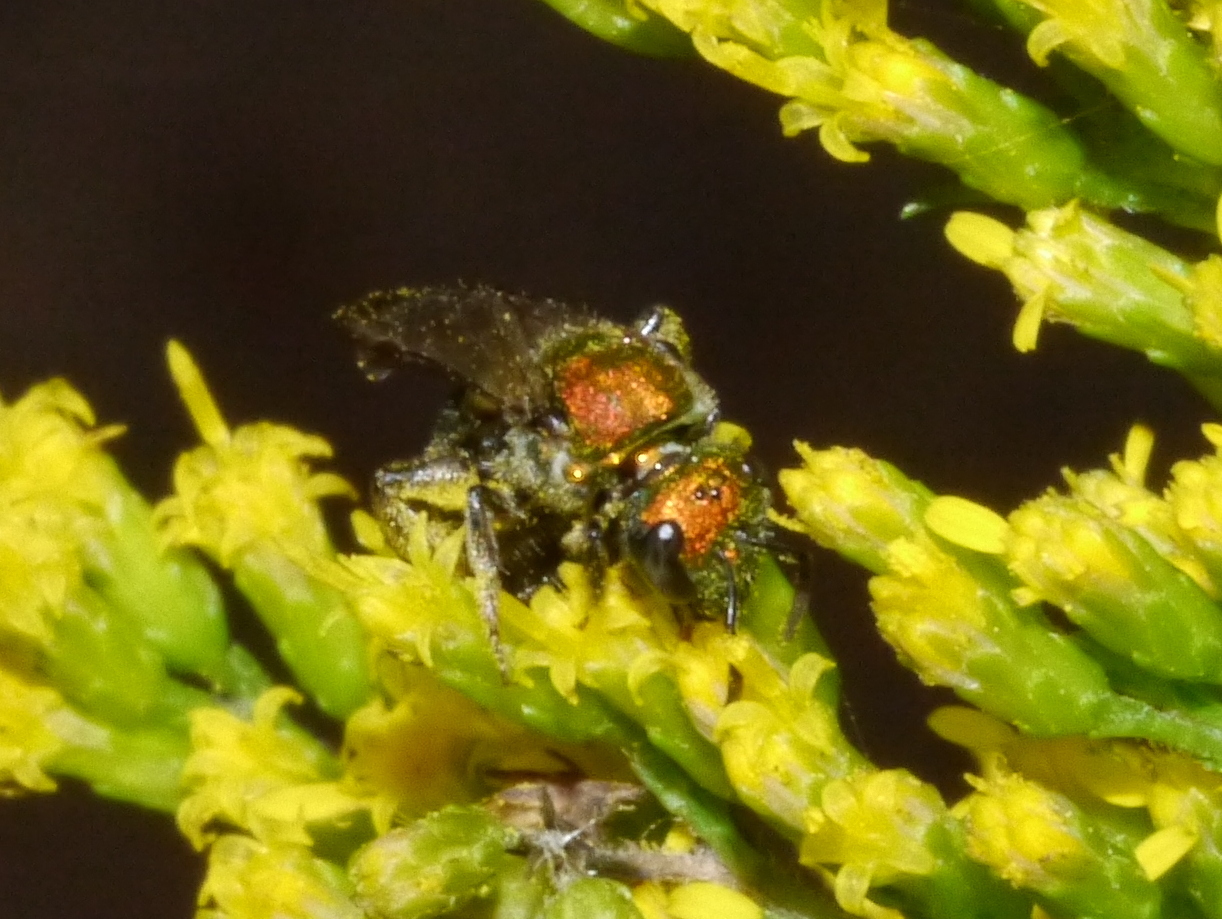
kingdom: Animalia
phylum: Arthropoda
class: Insecta
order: Hymenoptera
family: Halictidae
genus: Augochlora
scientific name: Augochlora pura
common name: Pure green sweat bee
